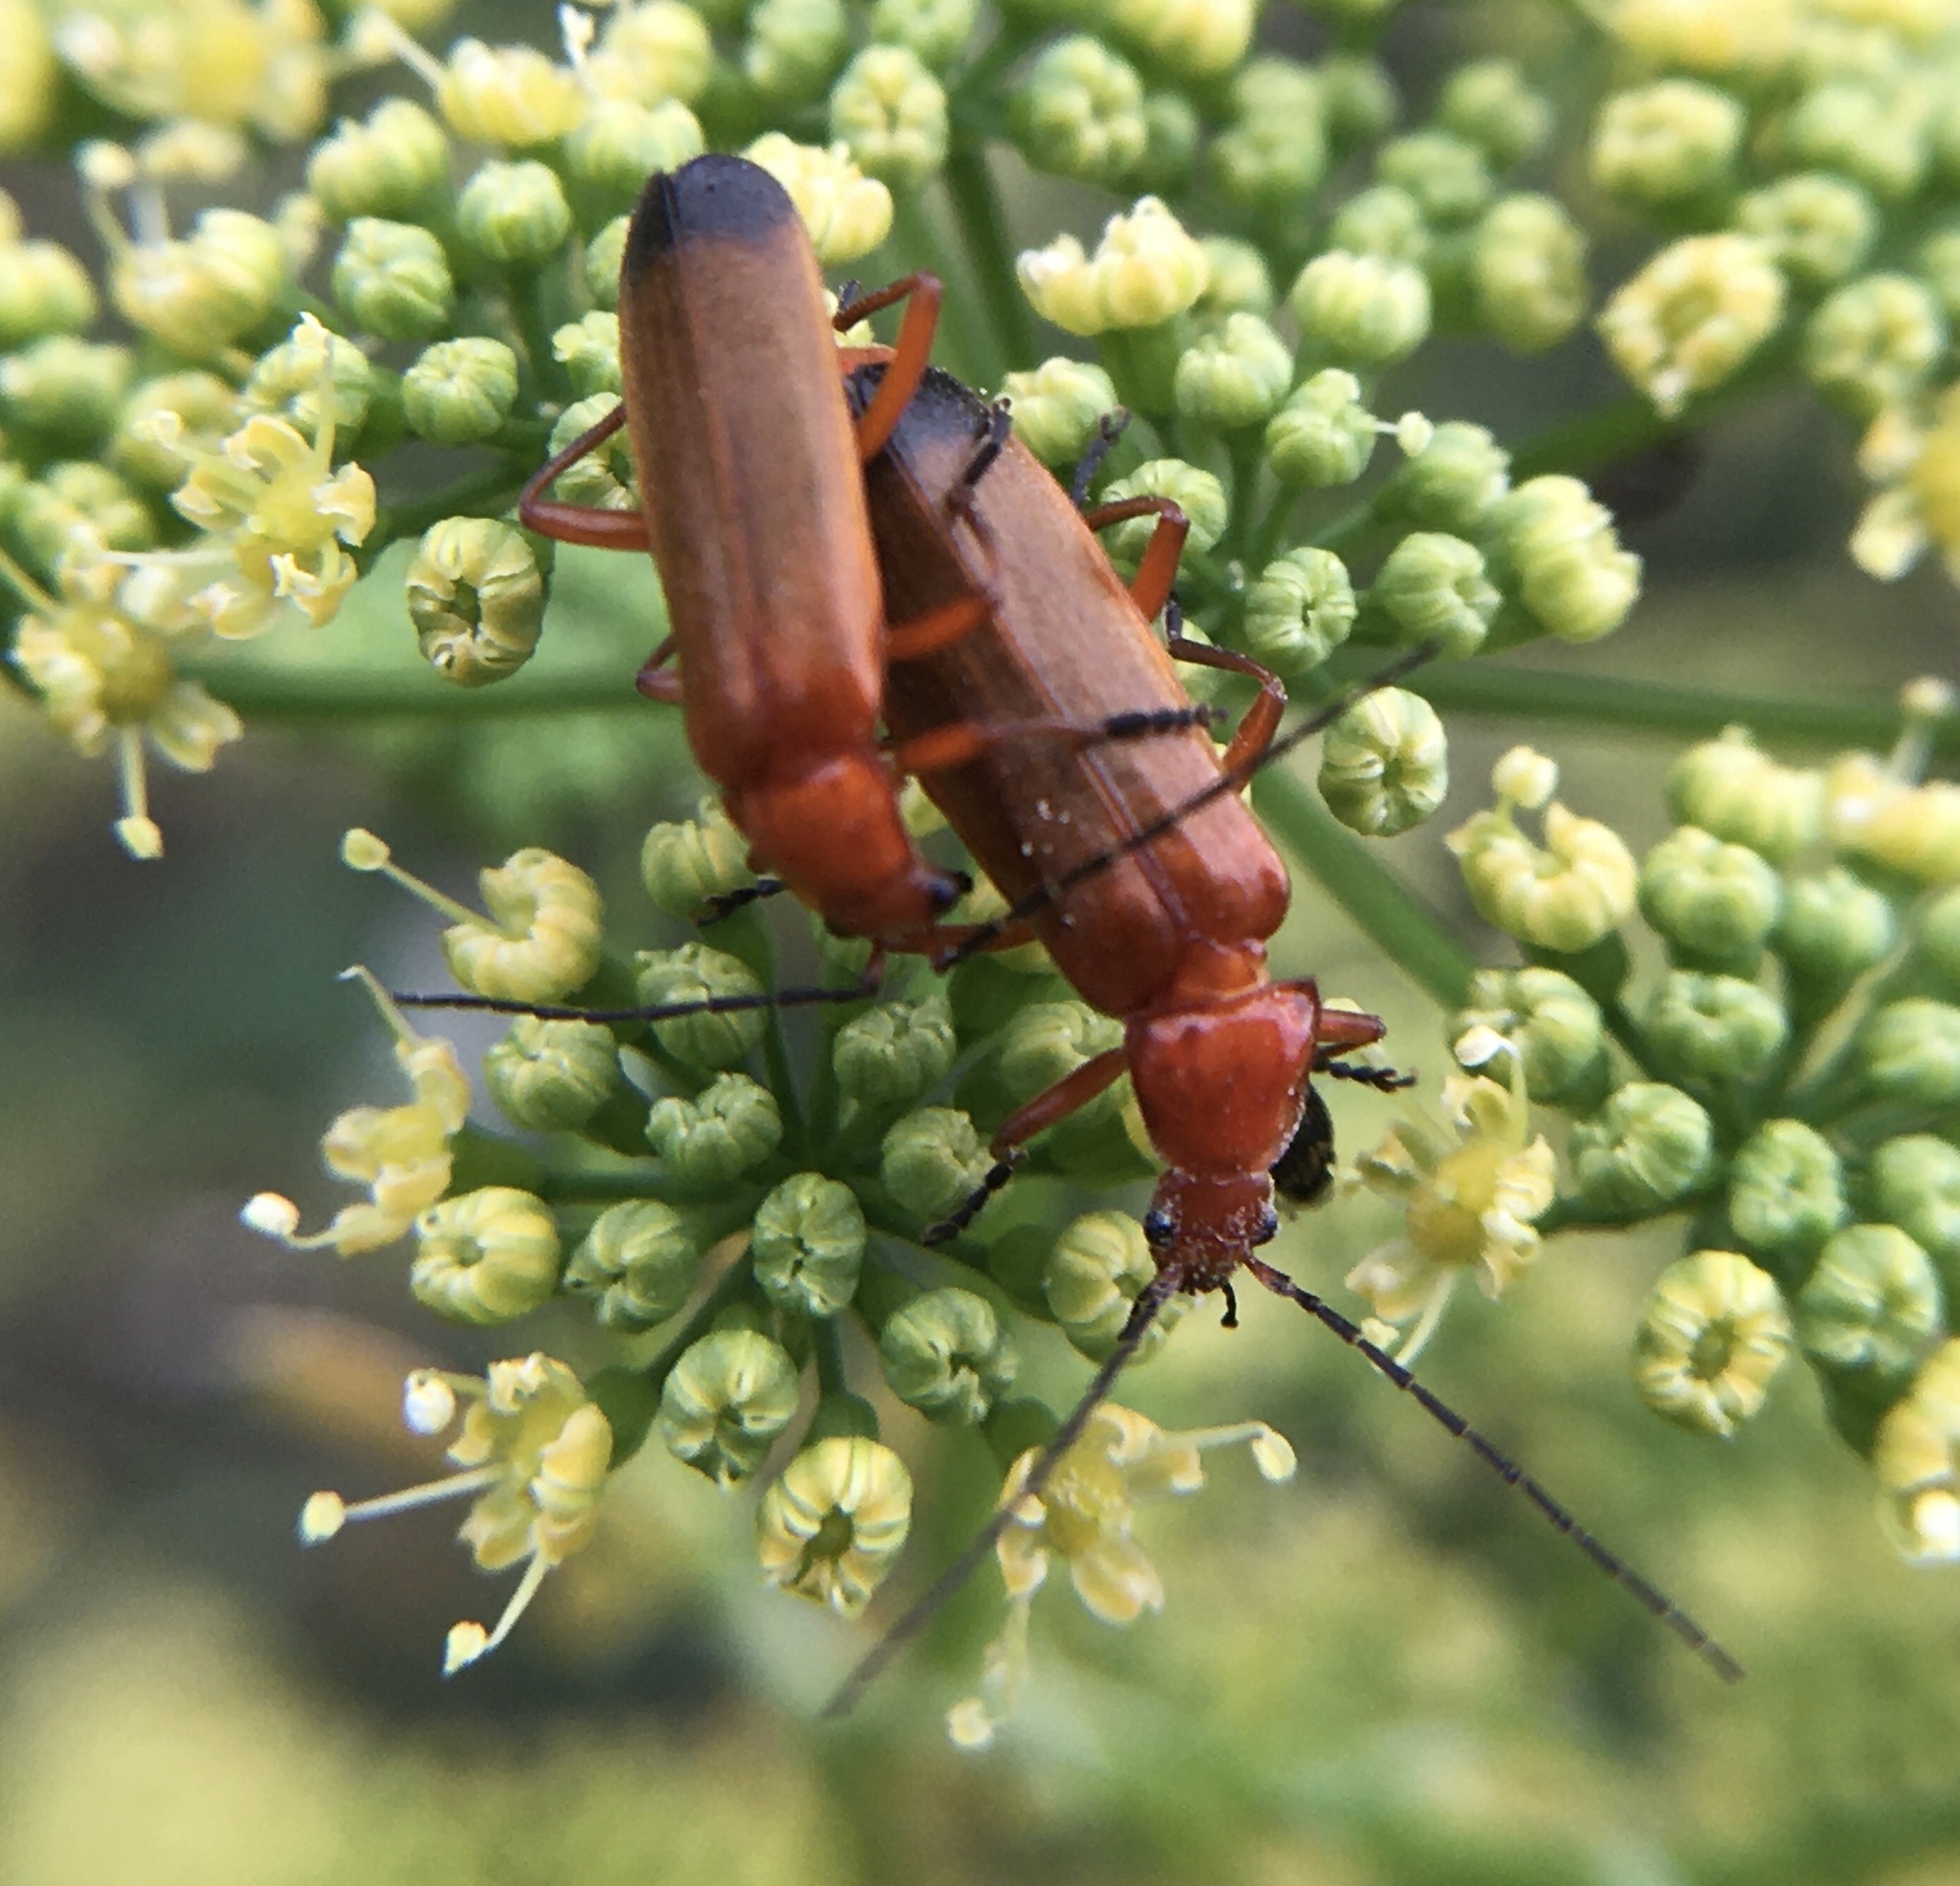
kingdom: Animalia
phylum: Arthropoda
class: Insecta
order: Coleoptera
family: Cantharidae
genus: Rhagonycha
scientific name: Rhagonycha fulva
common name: Common red soldier beetle
